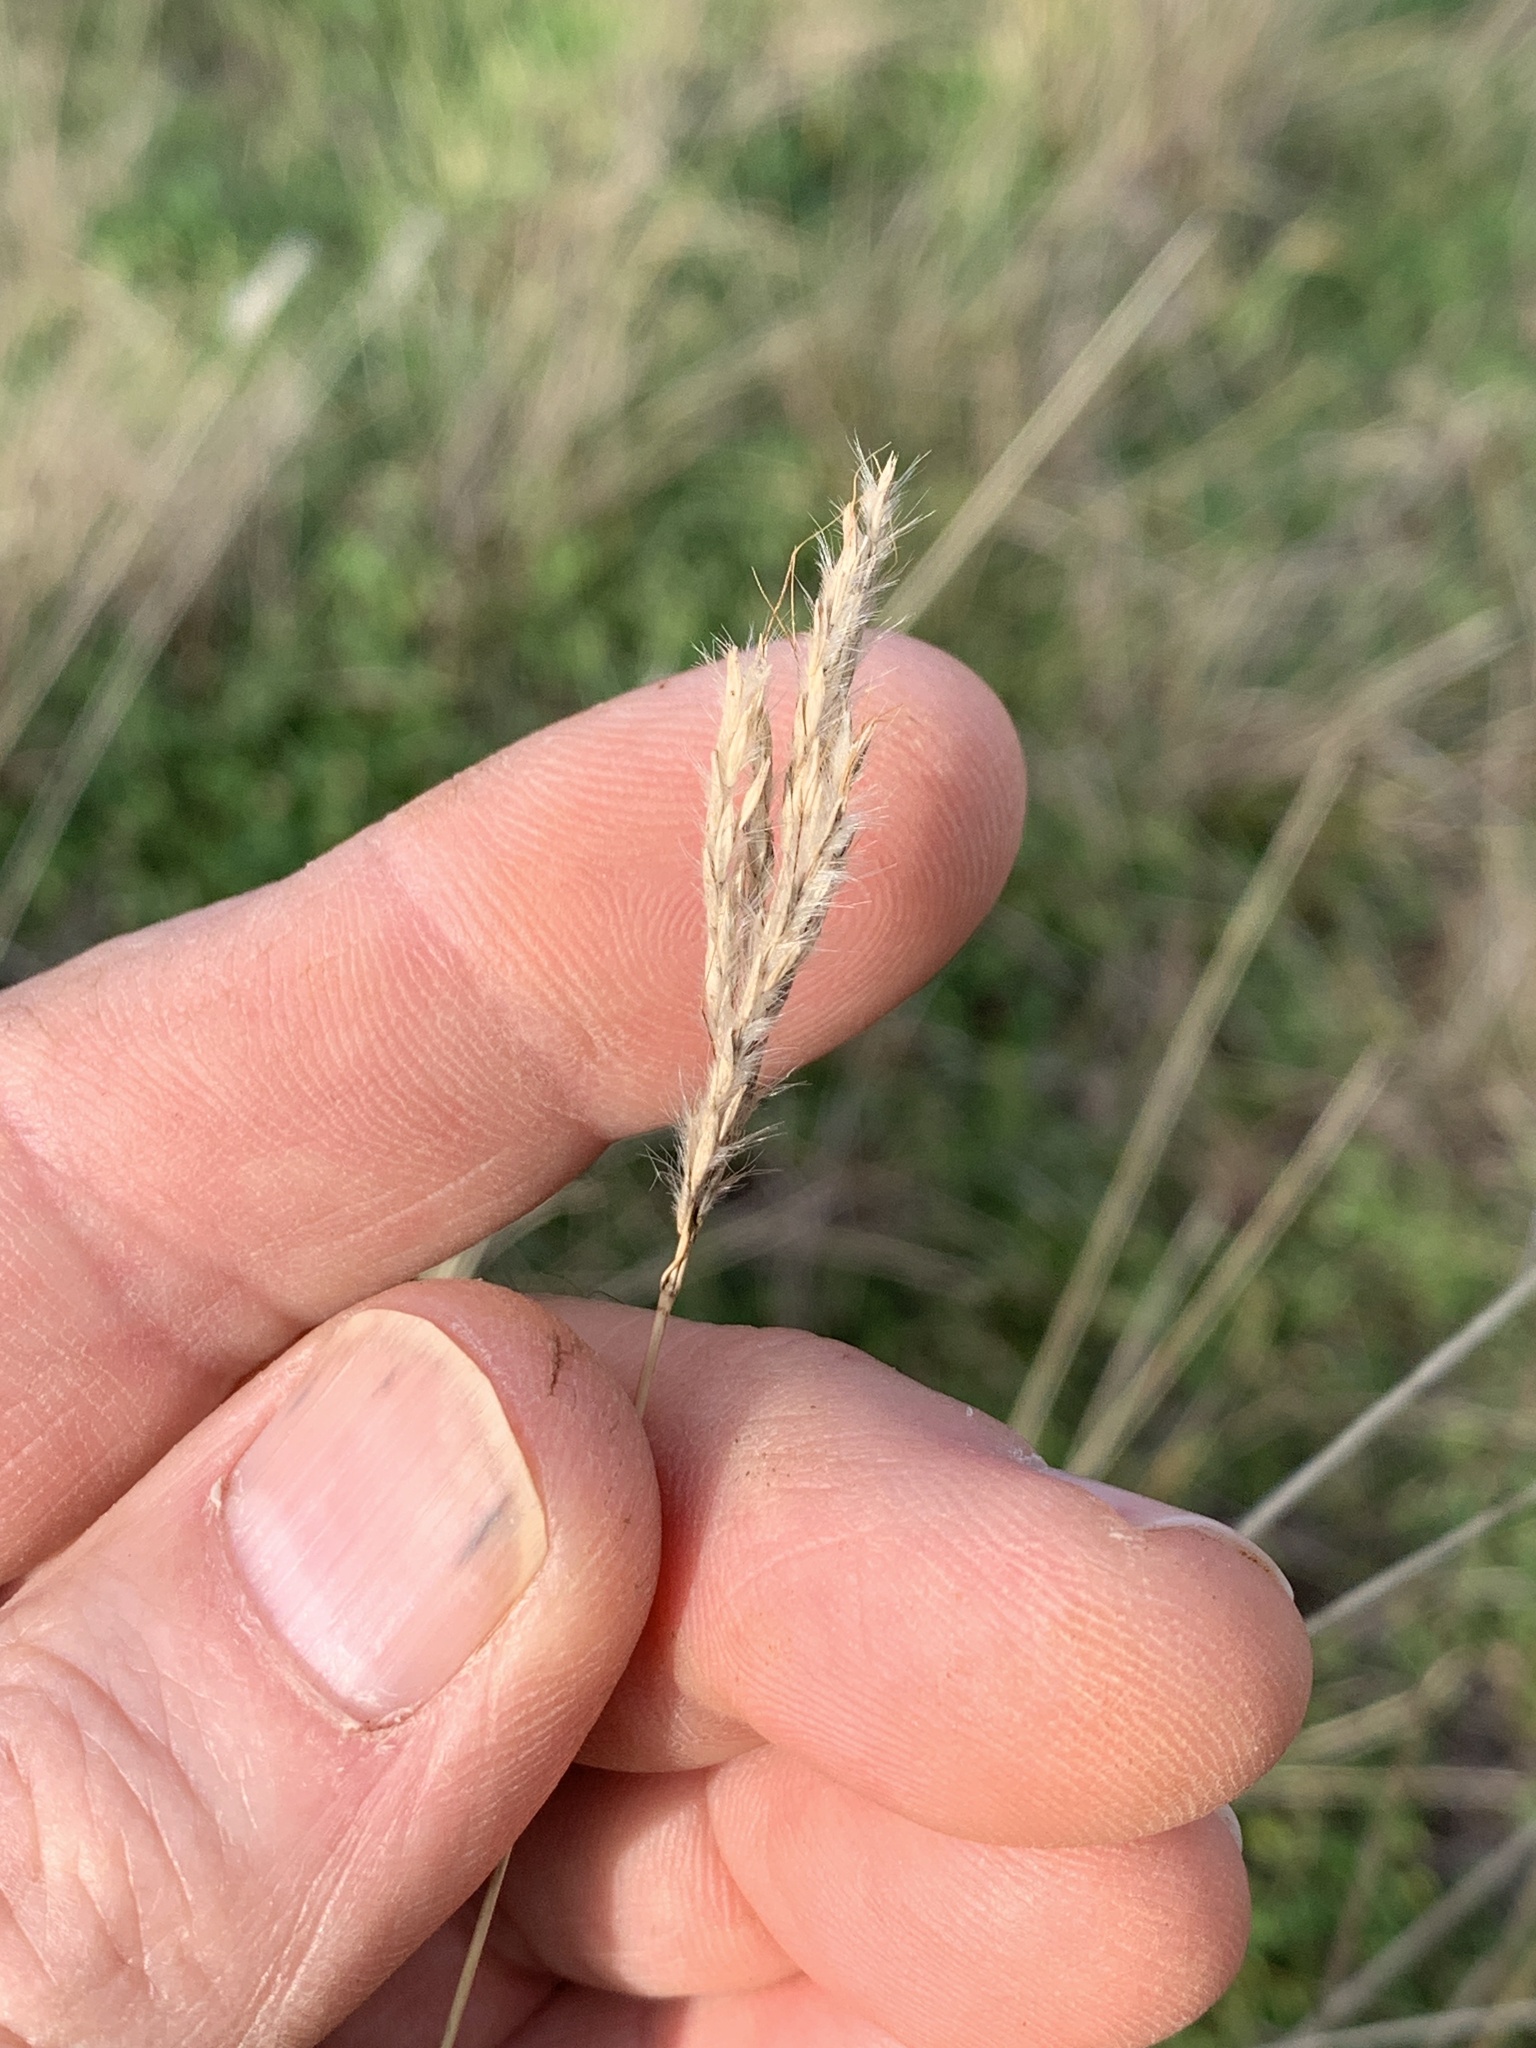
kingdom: Plantae
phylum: Tracheophyta
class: Liliopsida
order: Poales
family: Poaceae
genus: Bothriochloa
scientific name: Bothriochloa torreyana
